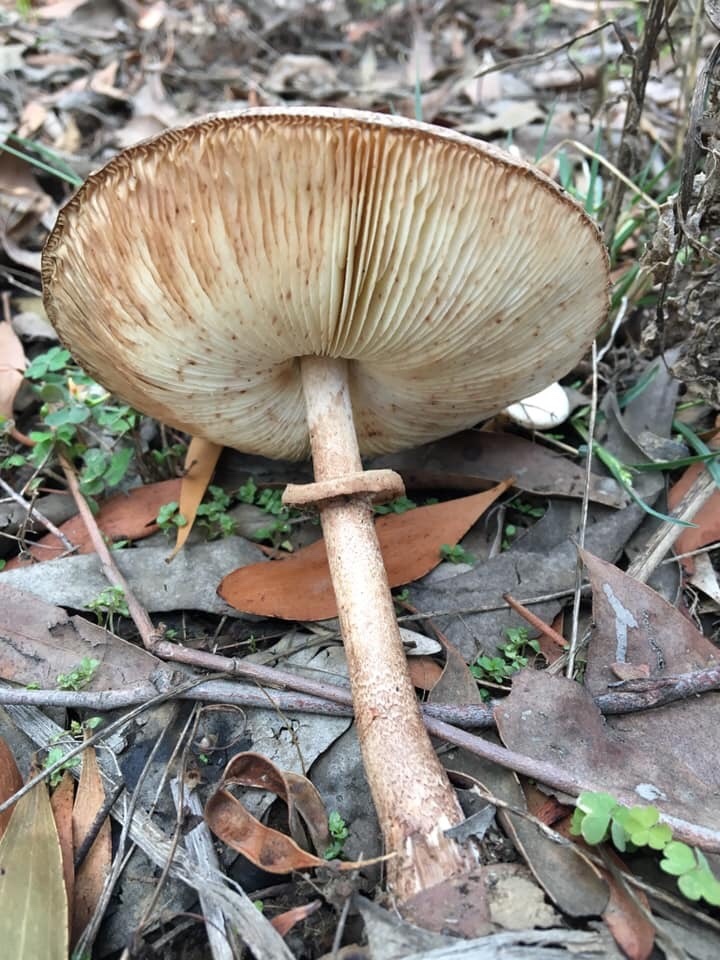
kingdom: Fungi
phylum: Basidiomycota
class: Agaricomycetes
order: Agaricales
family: Agaricaceae
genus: Macrolepiota
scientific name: Macrolepiota clelandii
